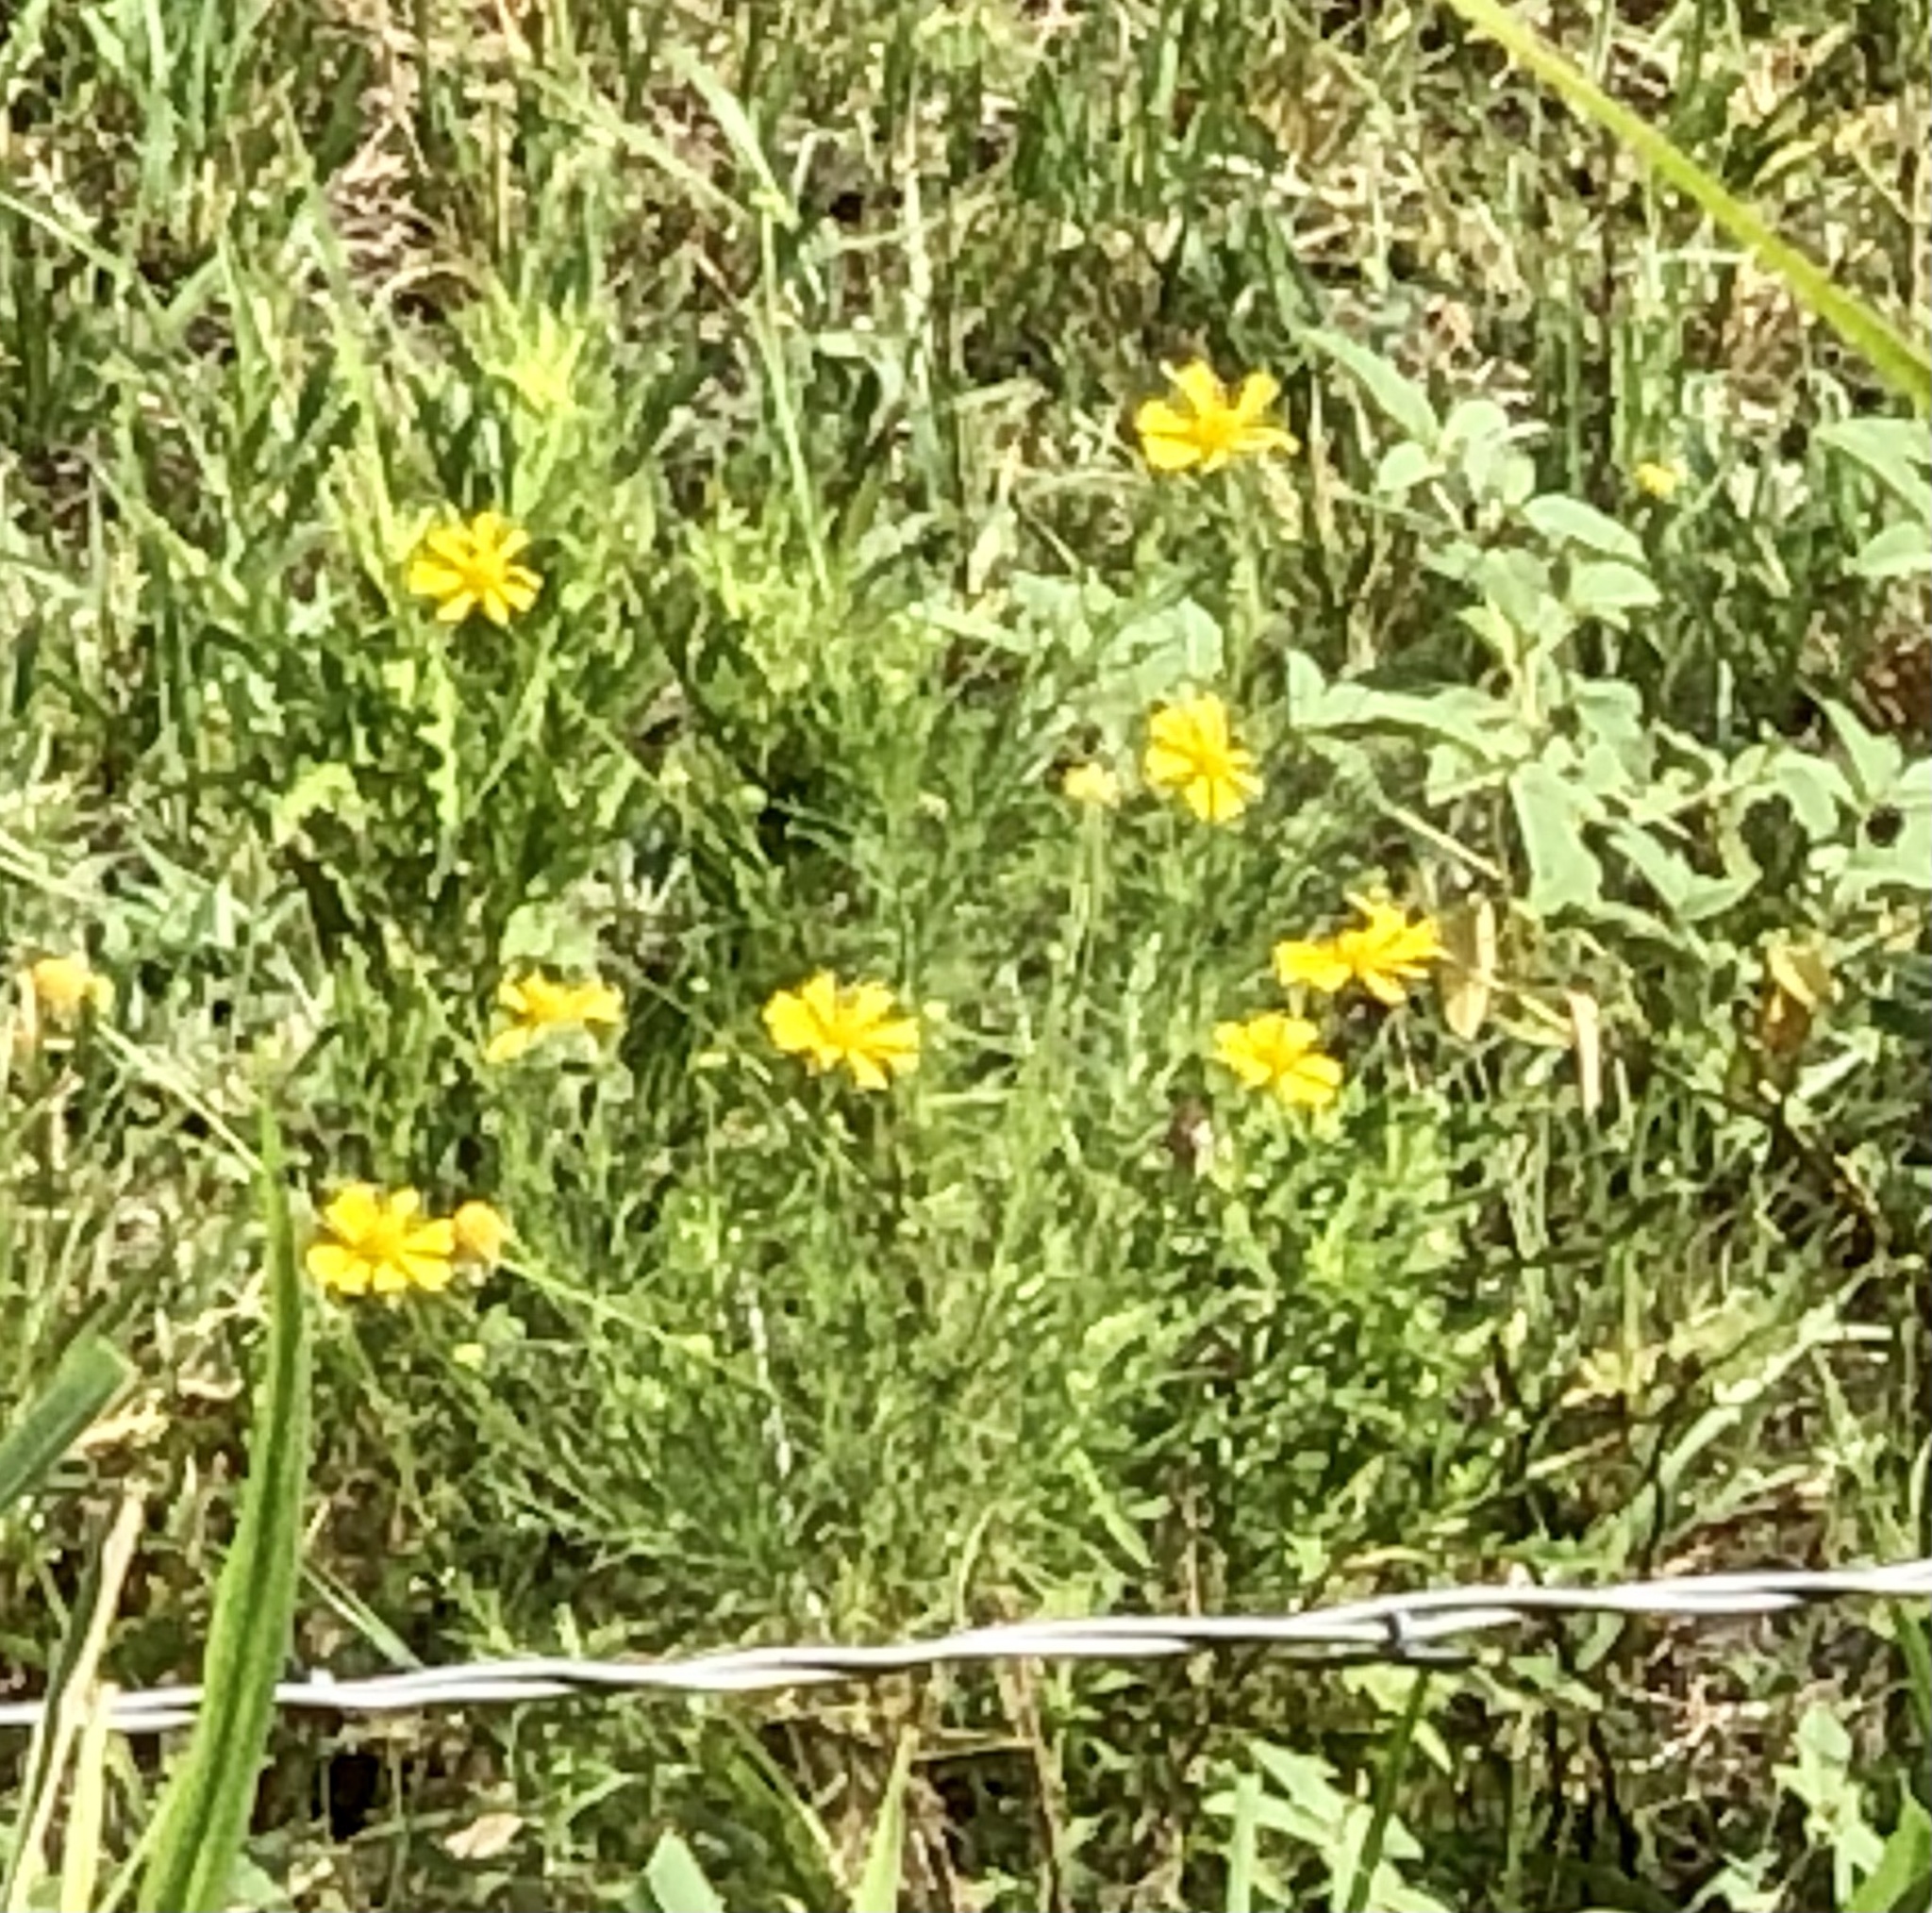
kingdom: Plantae
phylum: Tracheophyta
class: Magnoliopsida
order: Asterales
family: Asteraceae
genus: Helenium
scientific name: Helenium amarum
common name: Bitter sneezeweed
